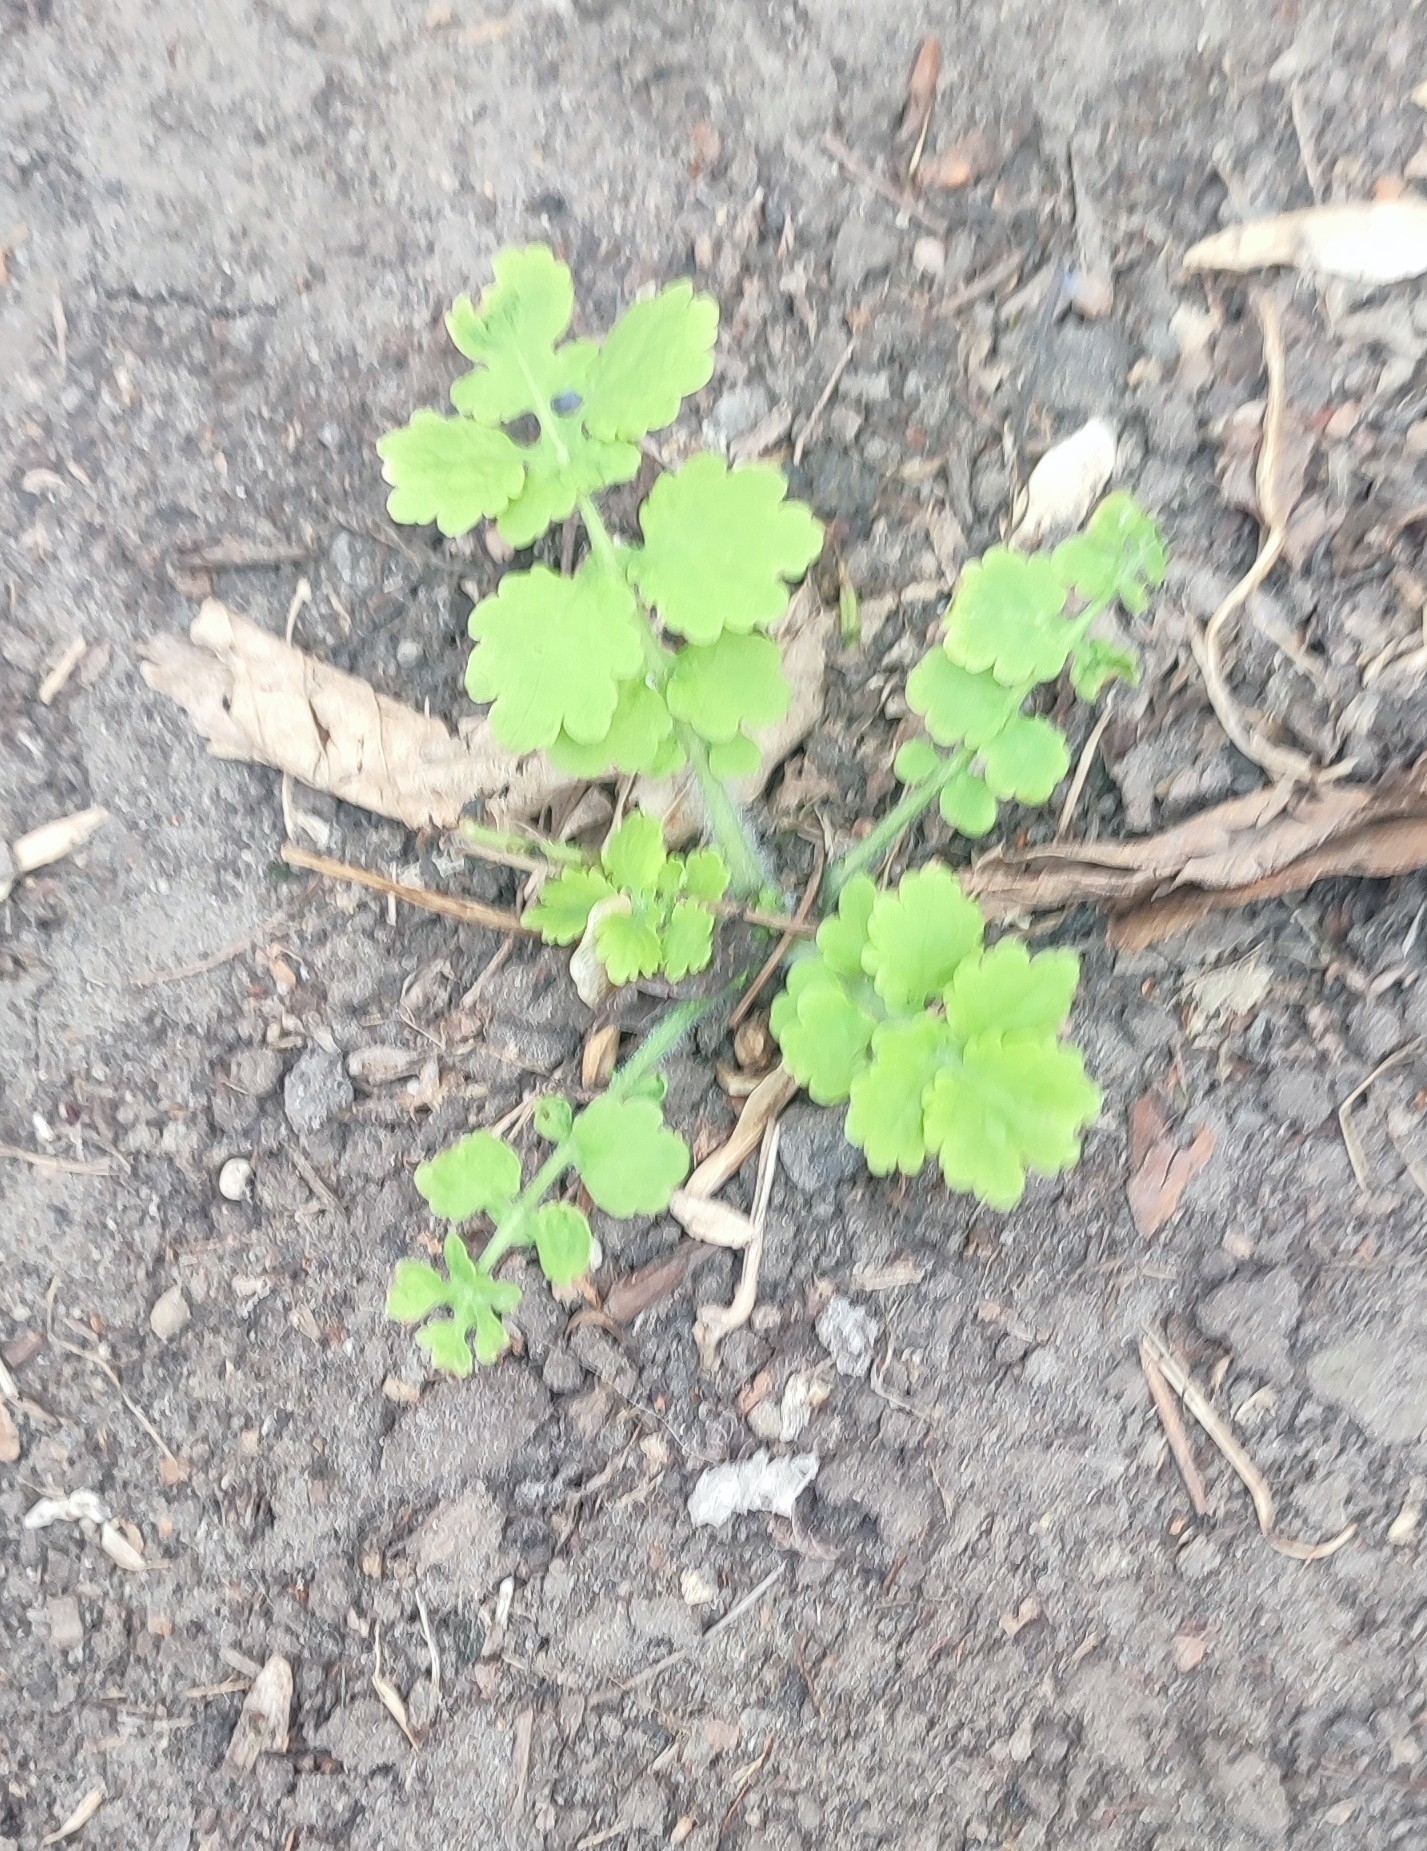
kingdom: Plantae
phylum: Tracheophyta
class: Magnoliopsida
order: Ranunculales
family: Papaveraceae
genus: Chelidonium
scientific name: Chelidonium majus
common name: Greater celandine
